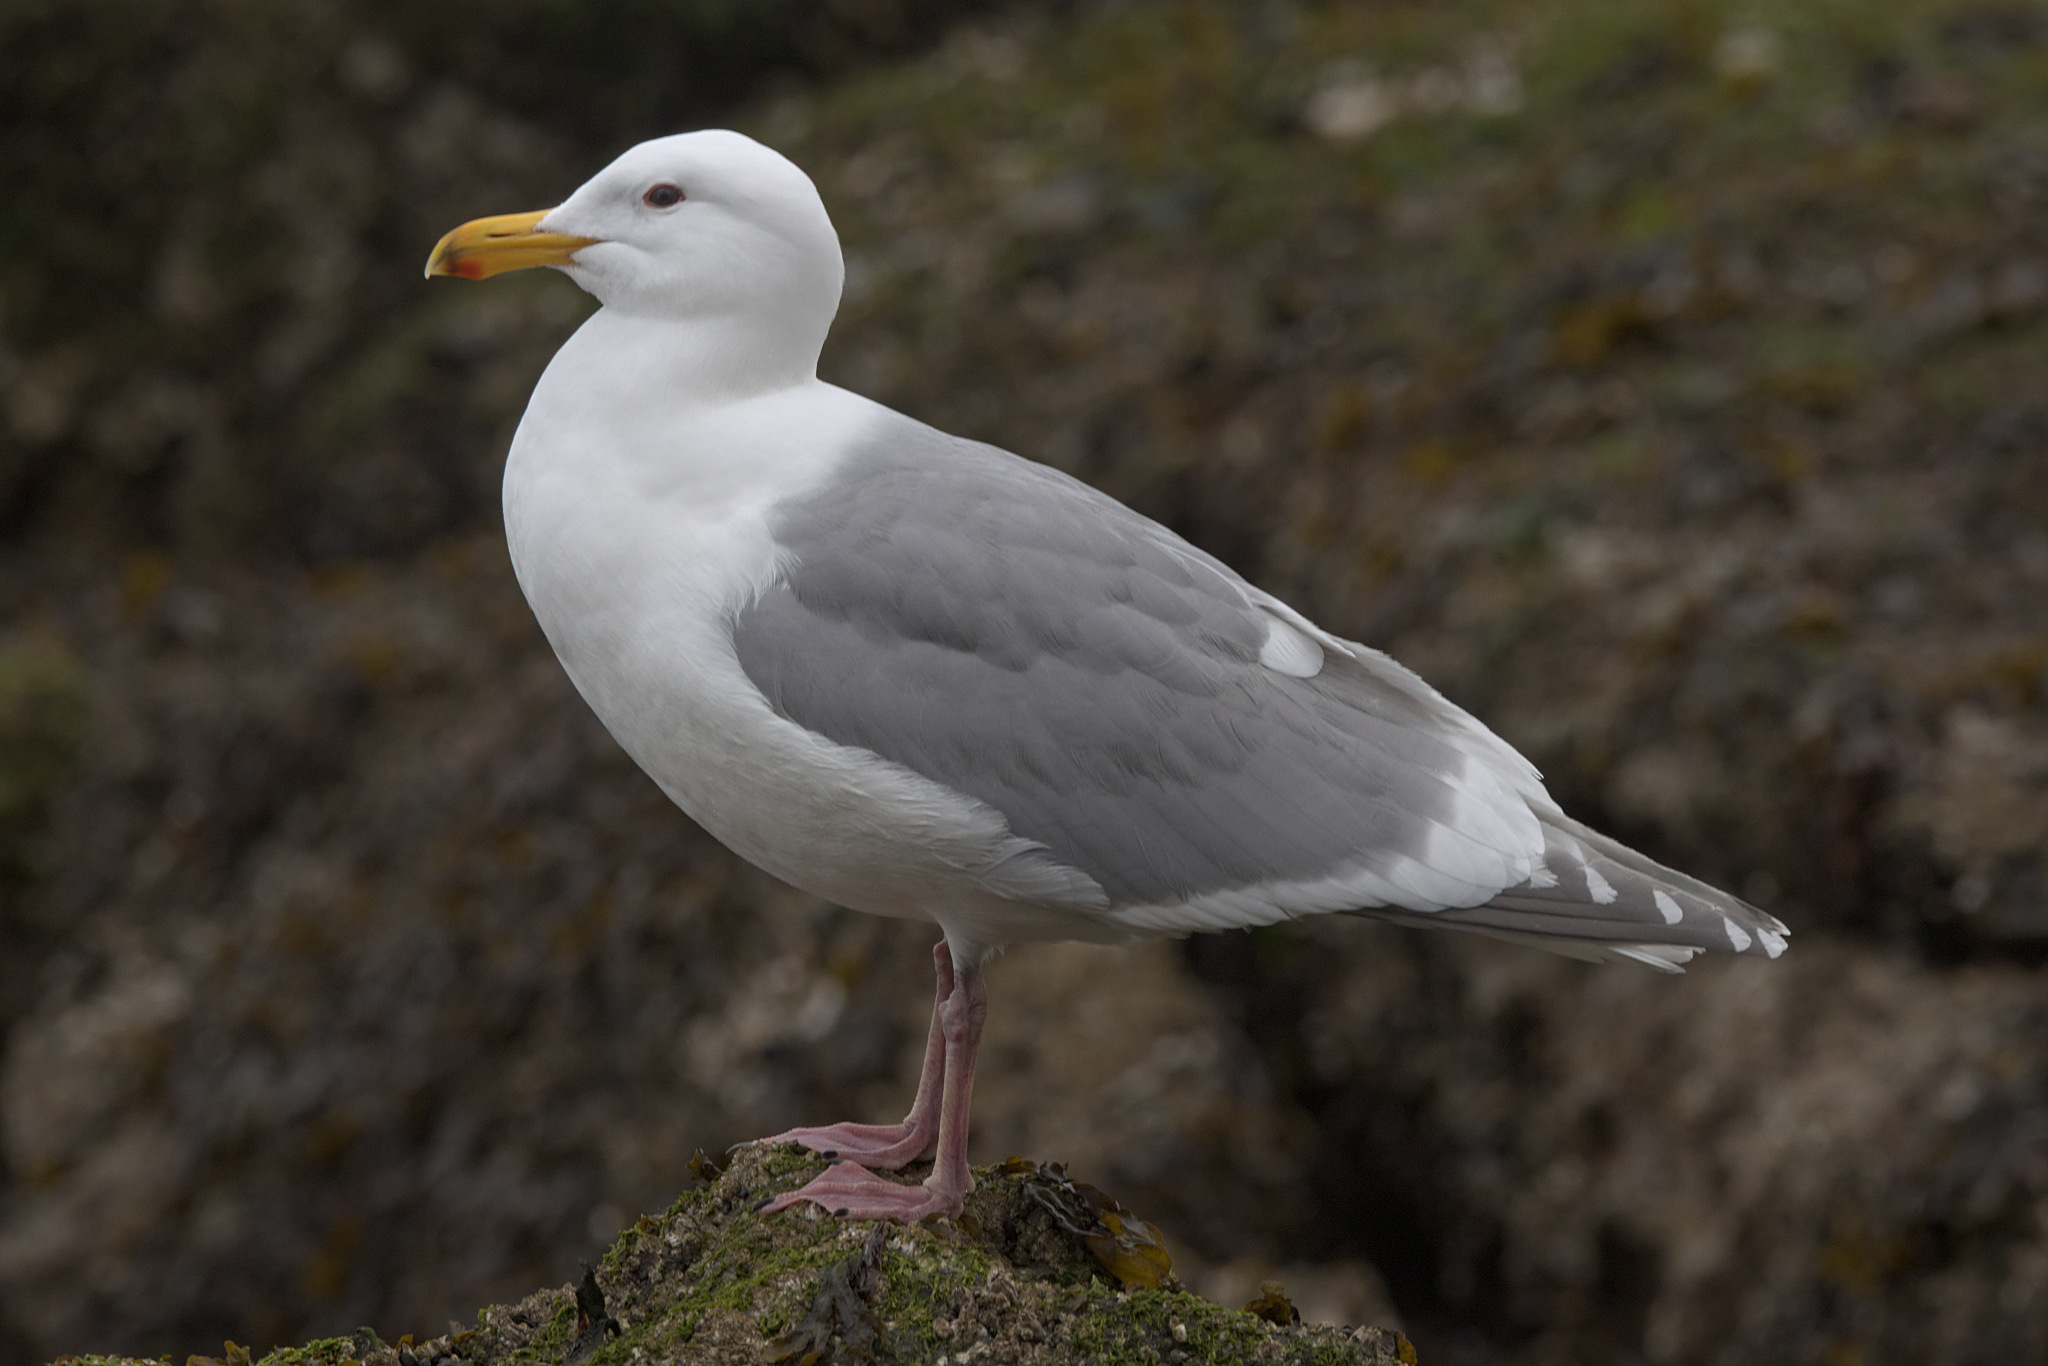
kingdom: Animalia
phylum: Chordata
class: Aves
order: Charadriiformes
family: Laridae
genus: Larus
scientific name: Larus
